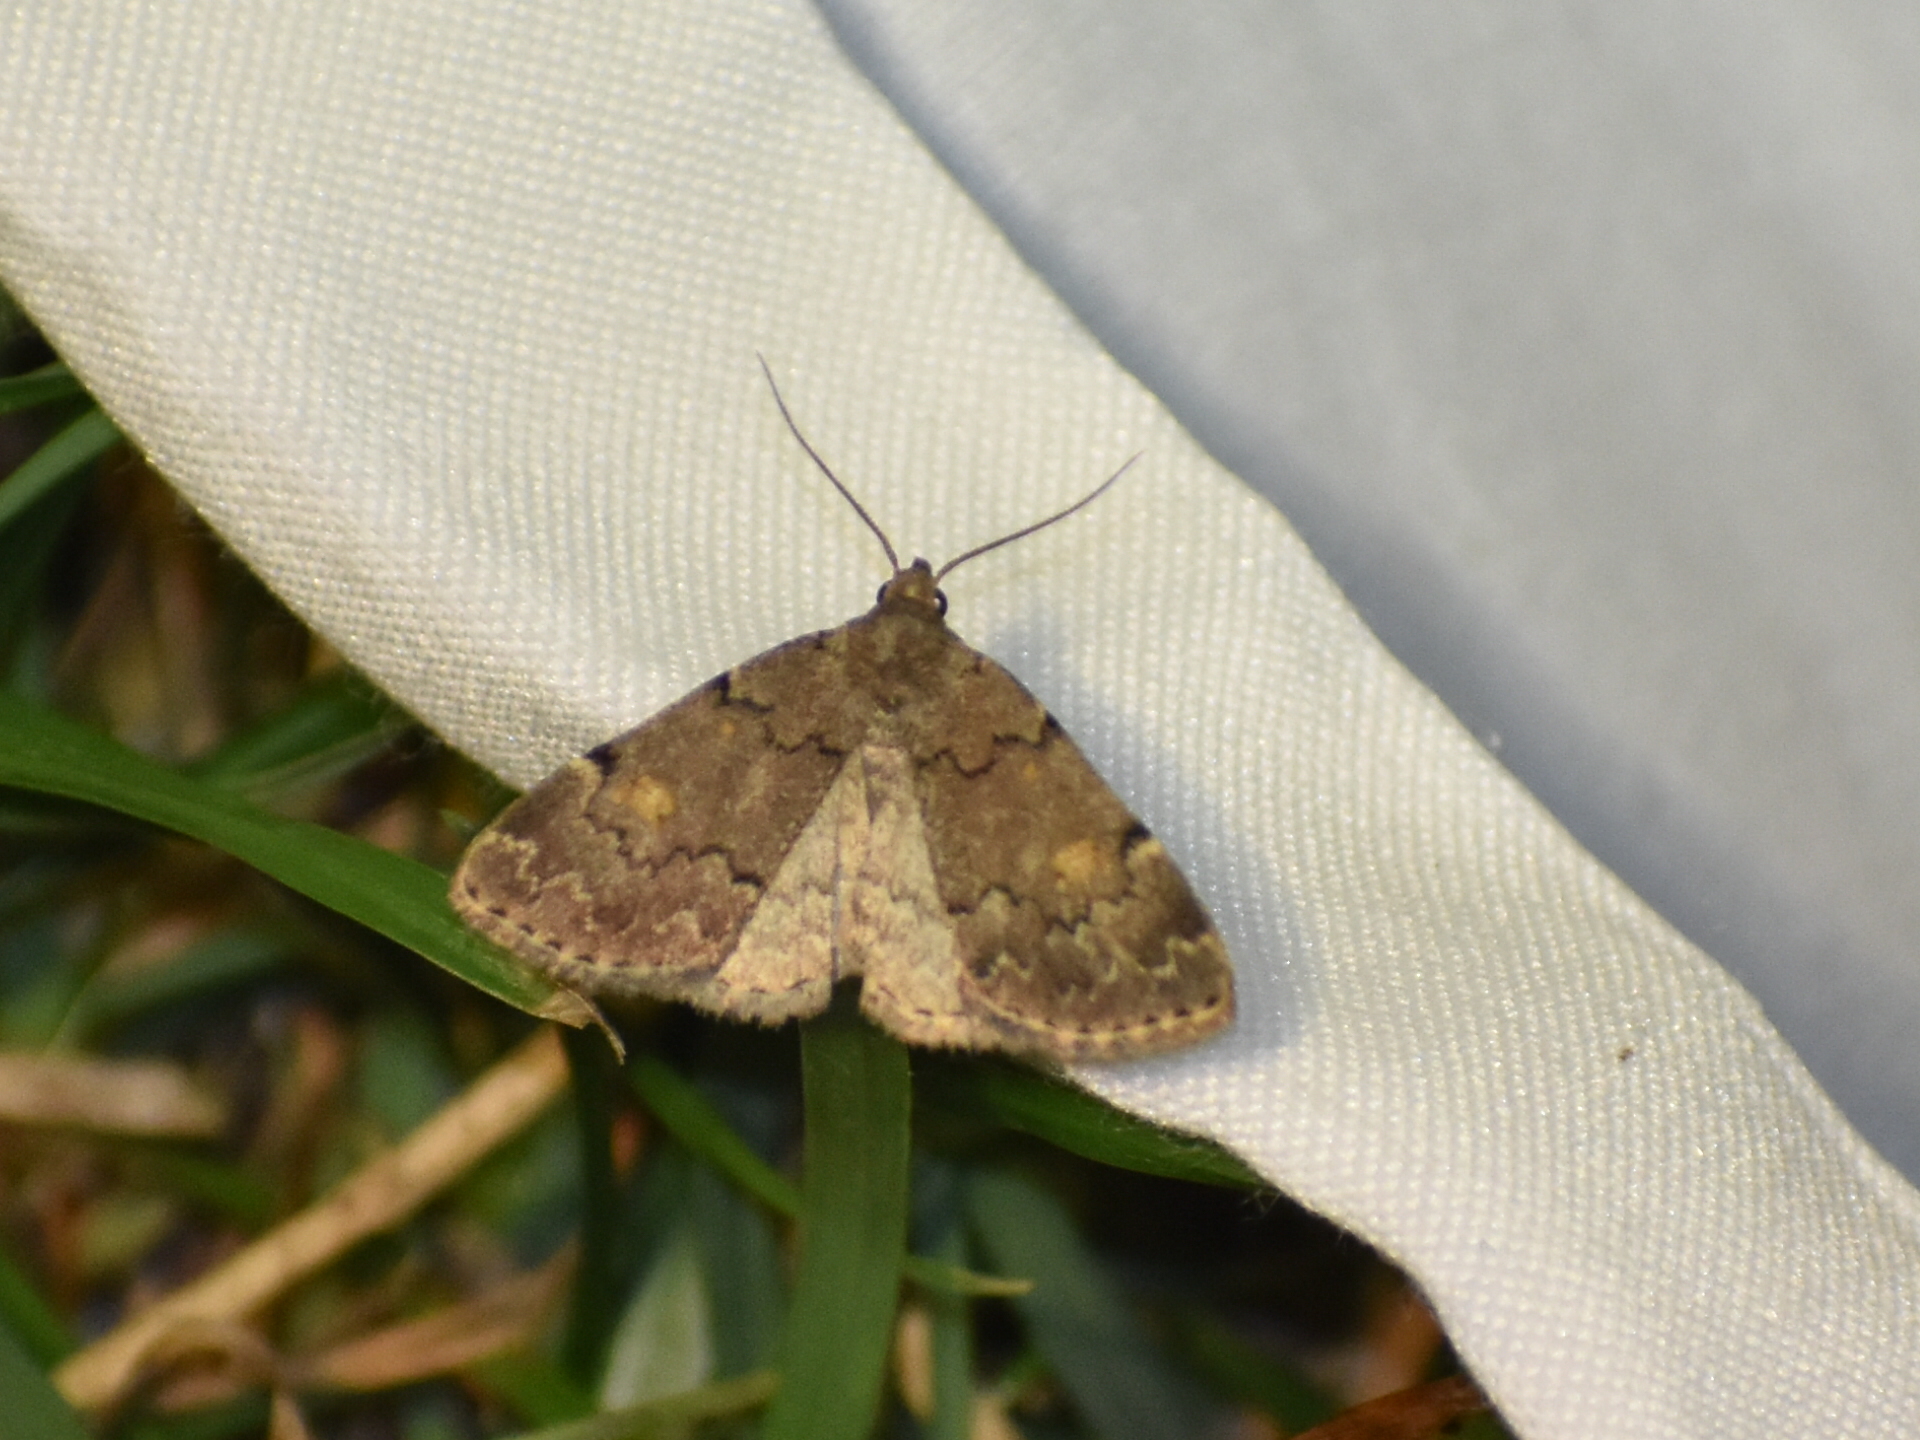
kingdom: Animalia
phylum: Arthropoda
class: Insecta
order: Lepidoptera
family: Erebidae
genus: Idia
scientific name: Idia aemula
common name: Common idia moth
